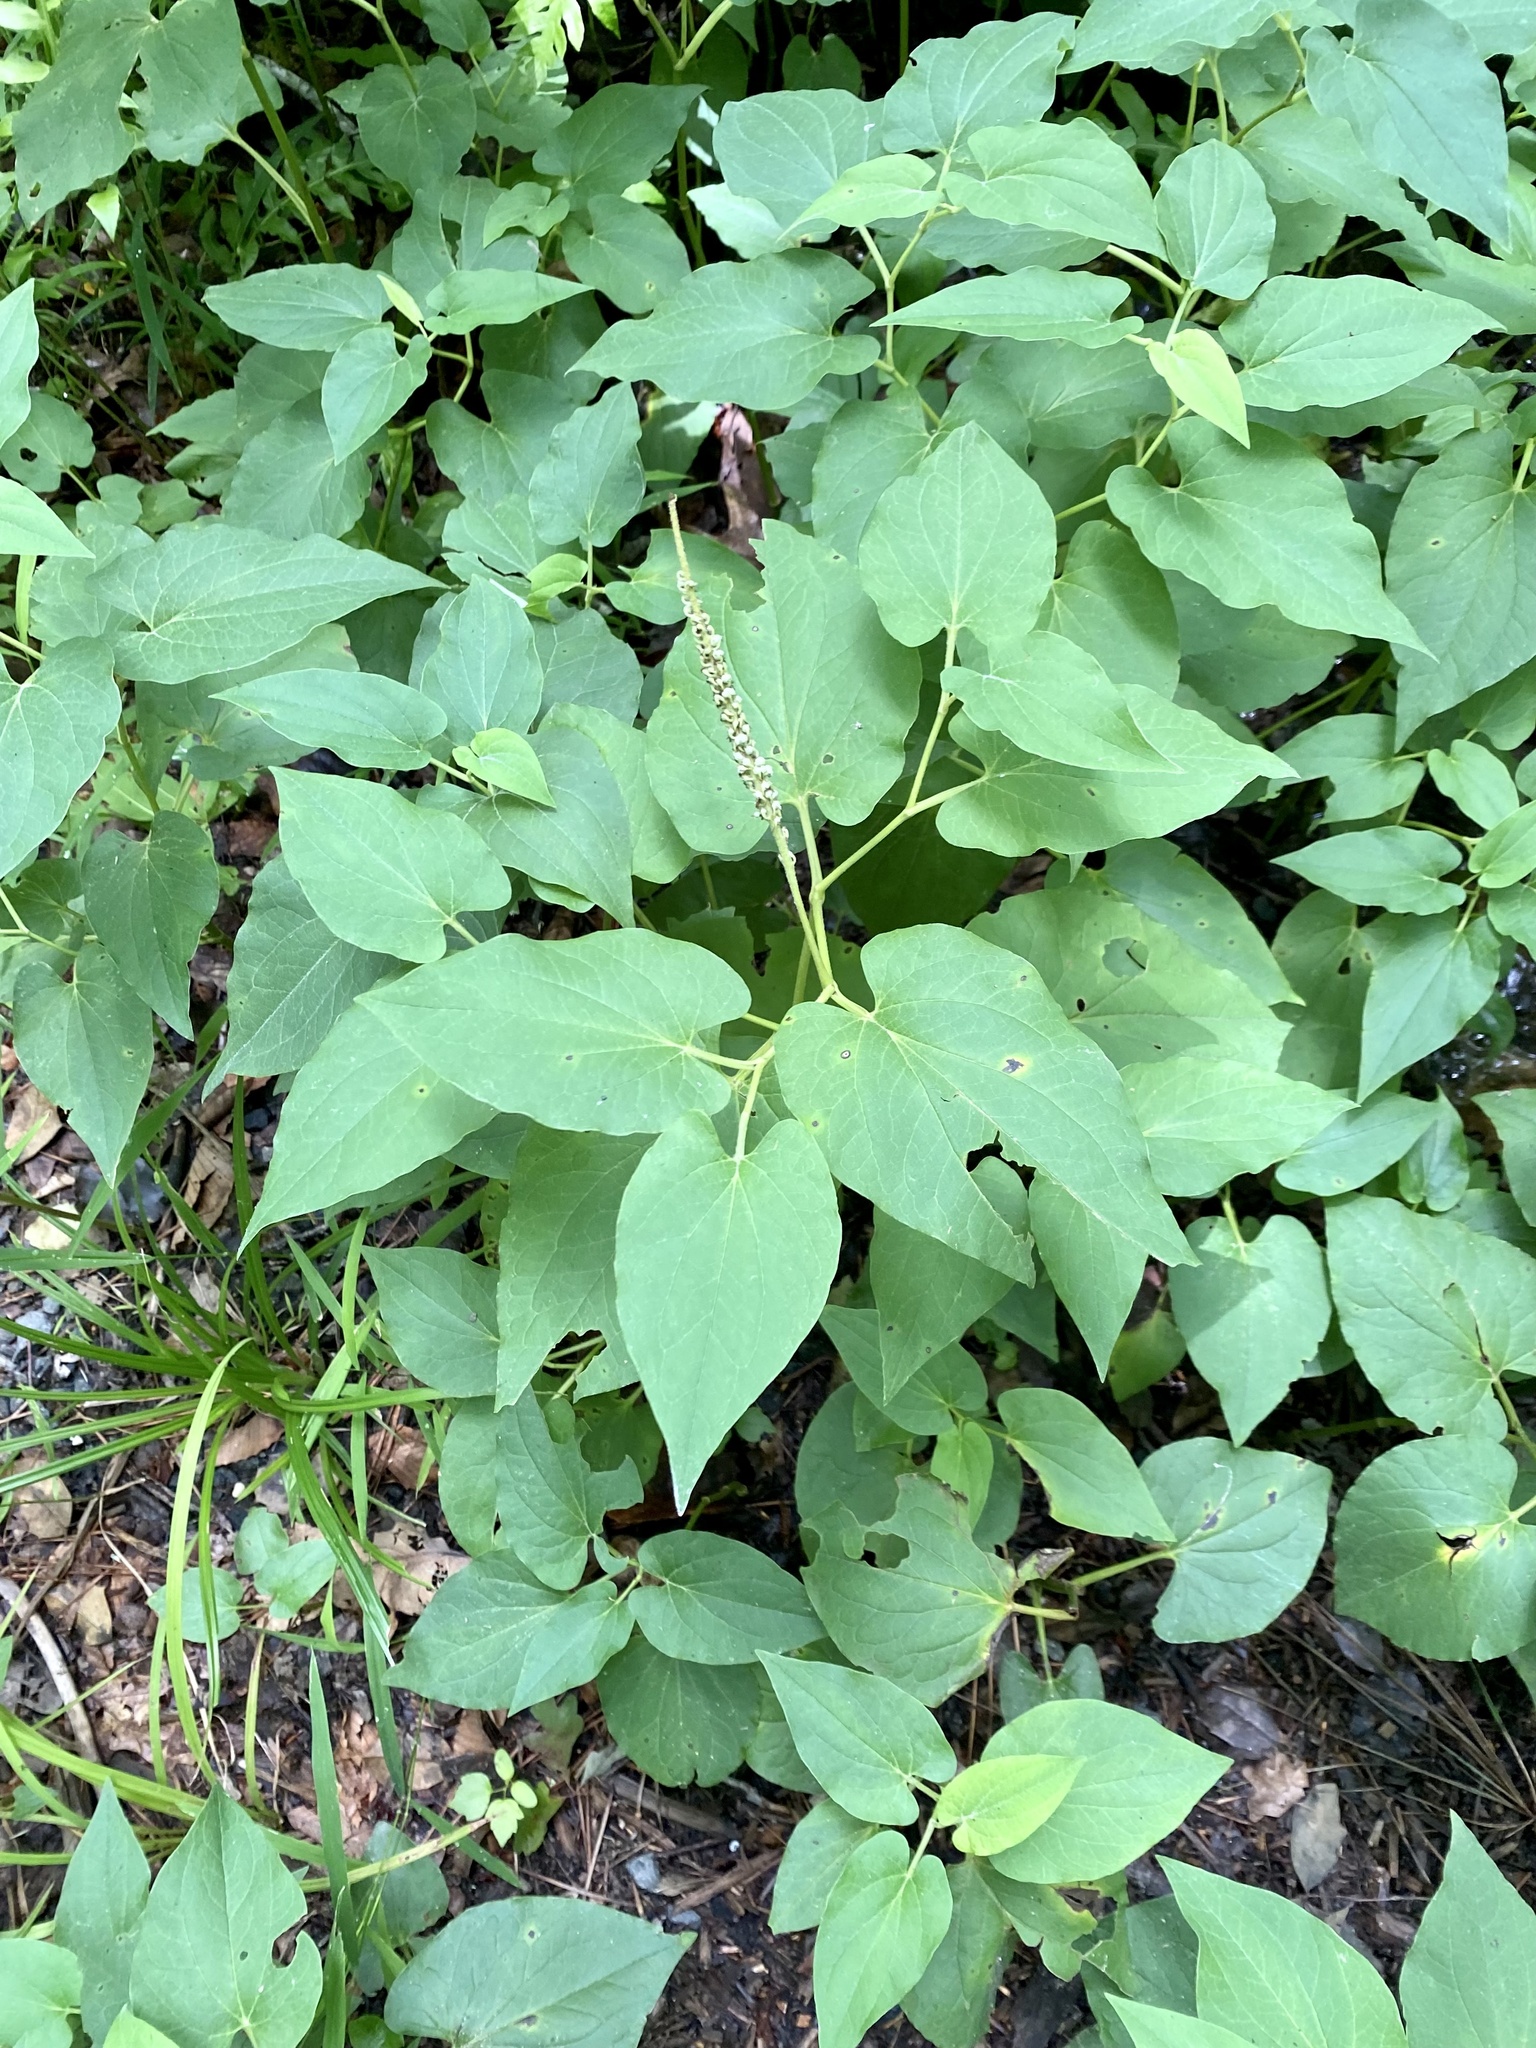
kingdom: Plantae
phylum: Tracheophyta
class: Magnoliopsida
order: Piperales
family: Saururaceae
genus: Saururus
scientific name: Saururus cernuus
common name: Lizard's-tail
